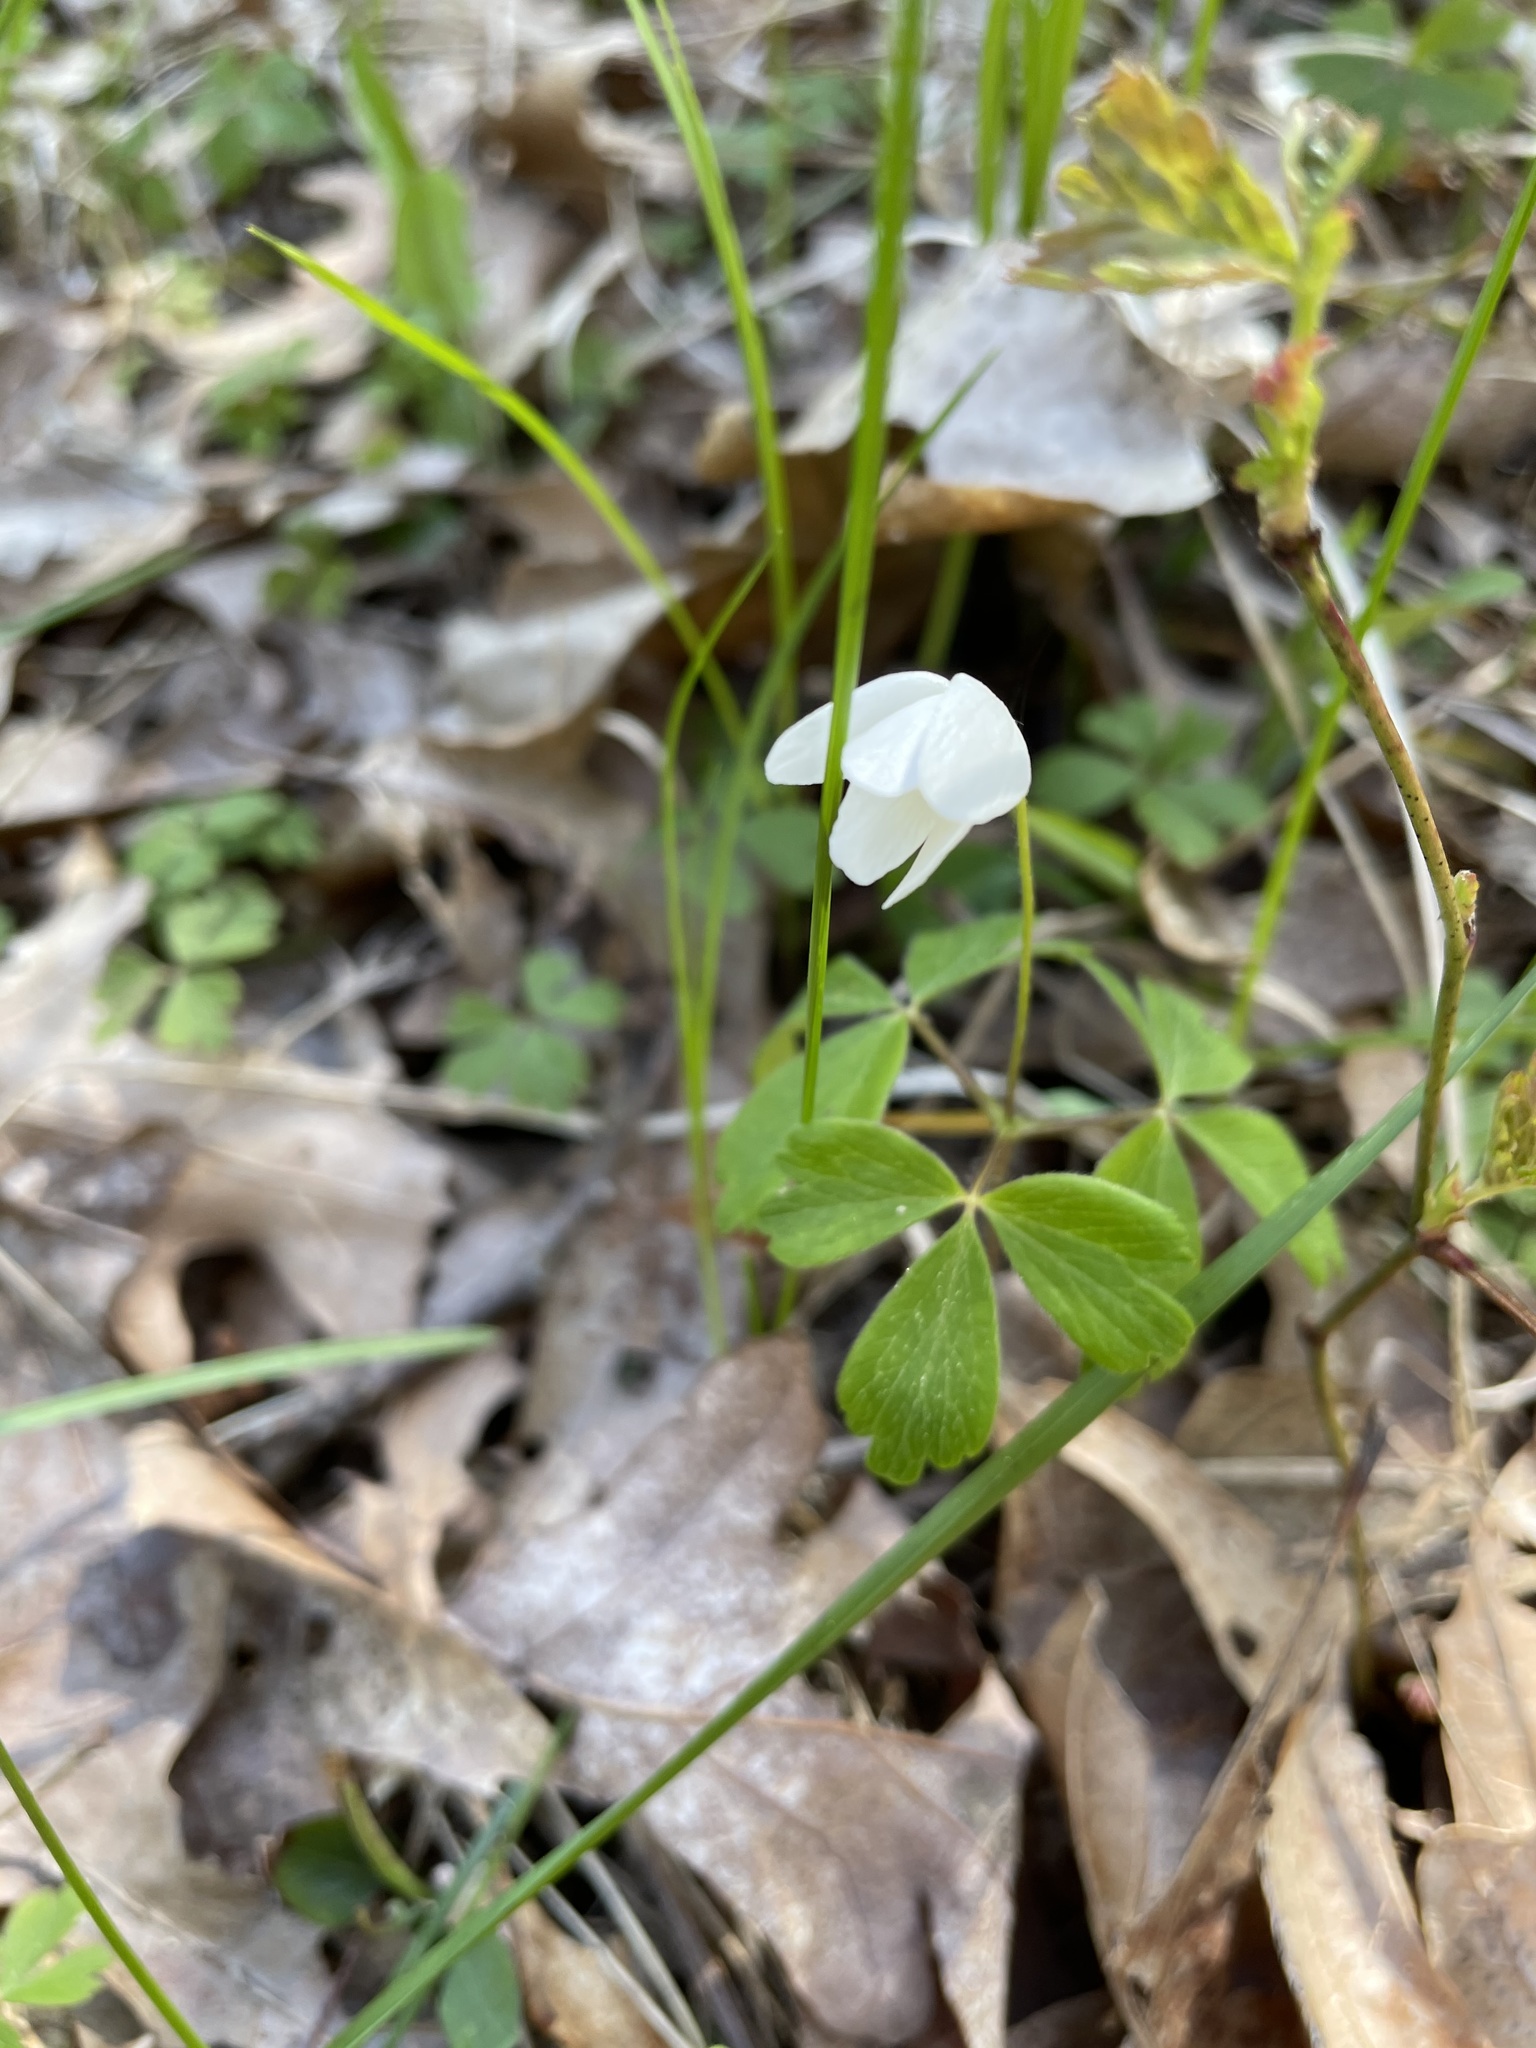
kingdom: Plantae
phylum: Tracheophyta
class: Magnoliopsida
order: Ranunculales
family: Ranunculaceae
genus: Anemone
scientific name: Anemone quinquefolia
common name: Wood anemone
